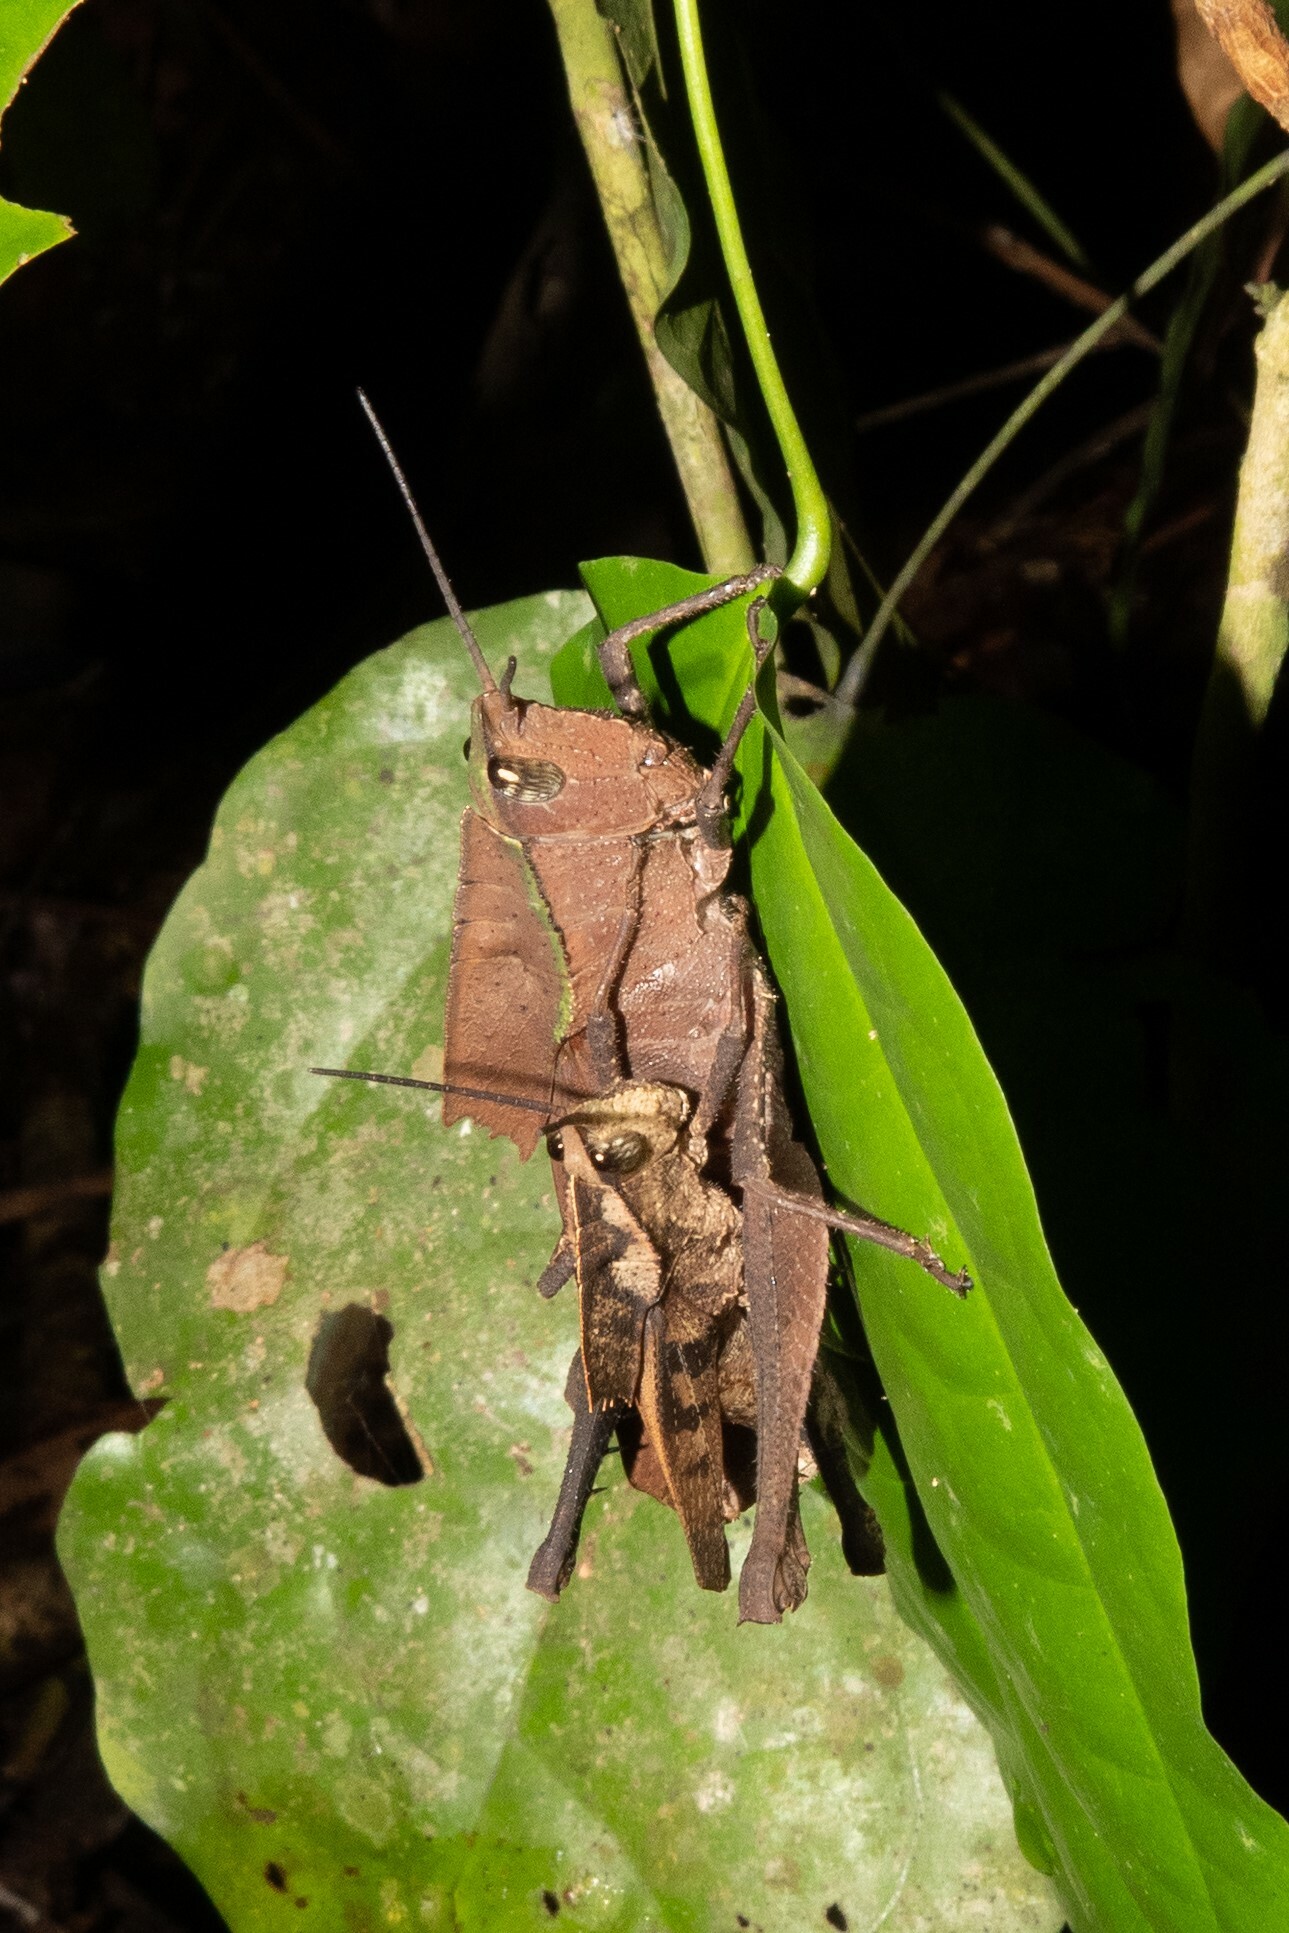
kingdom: Animalia
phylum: Arthropoda
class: Insecta
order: Orthoptera
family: Romaleidae
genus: Colpolopha
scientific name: Colpolopha praemorsa
